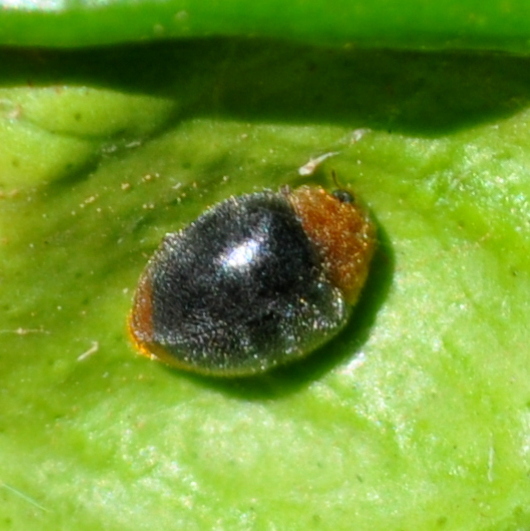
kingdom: Animalia
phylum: Arthropoda
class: Insecta
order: Coleoptera
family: Coccinellidae
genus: Cryptolaemus
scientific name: Cryptolaemus montrouzieri
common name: Mealybug destroyer
